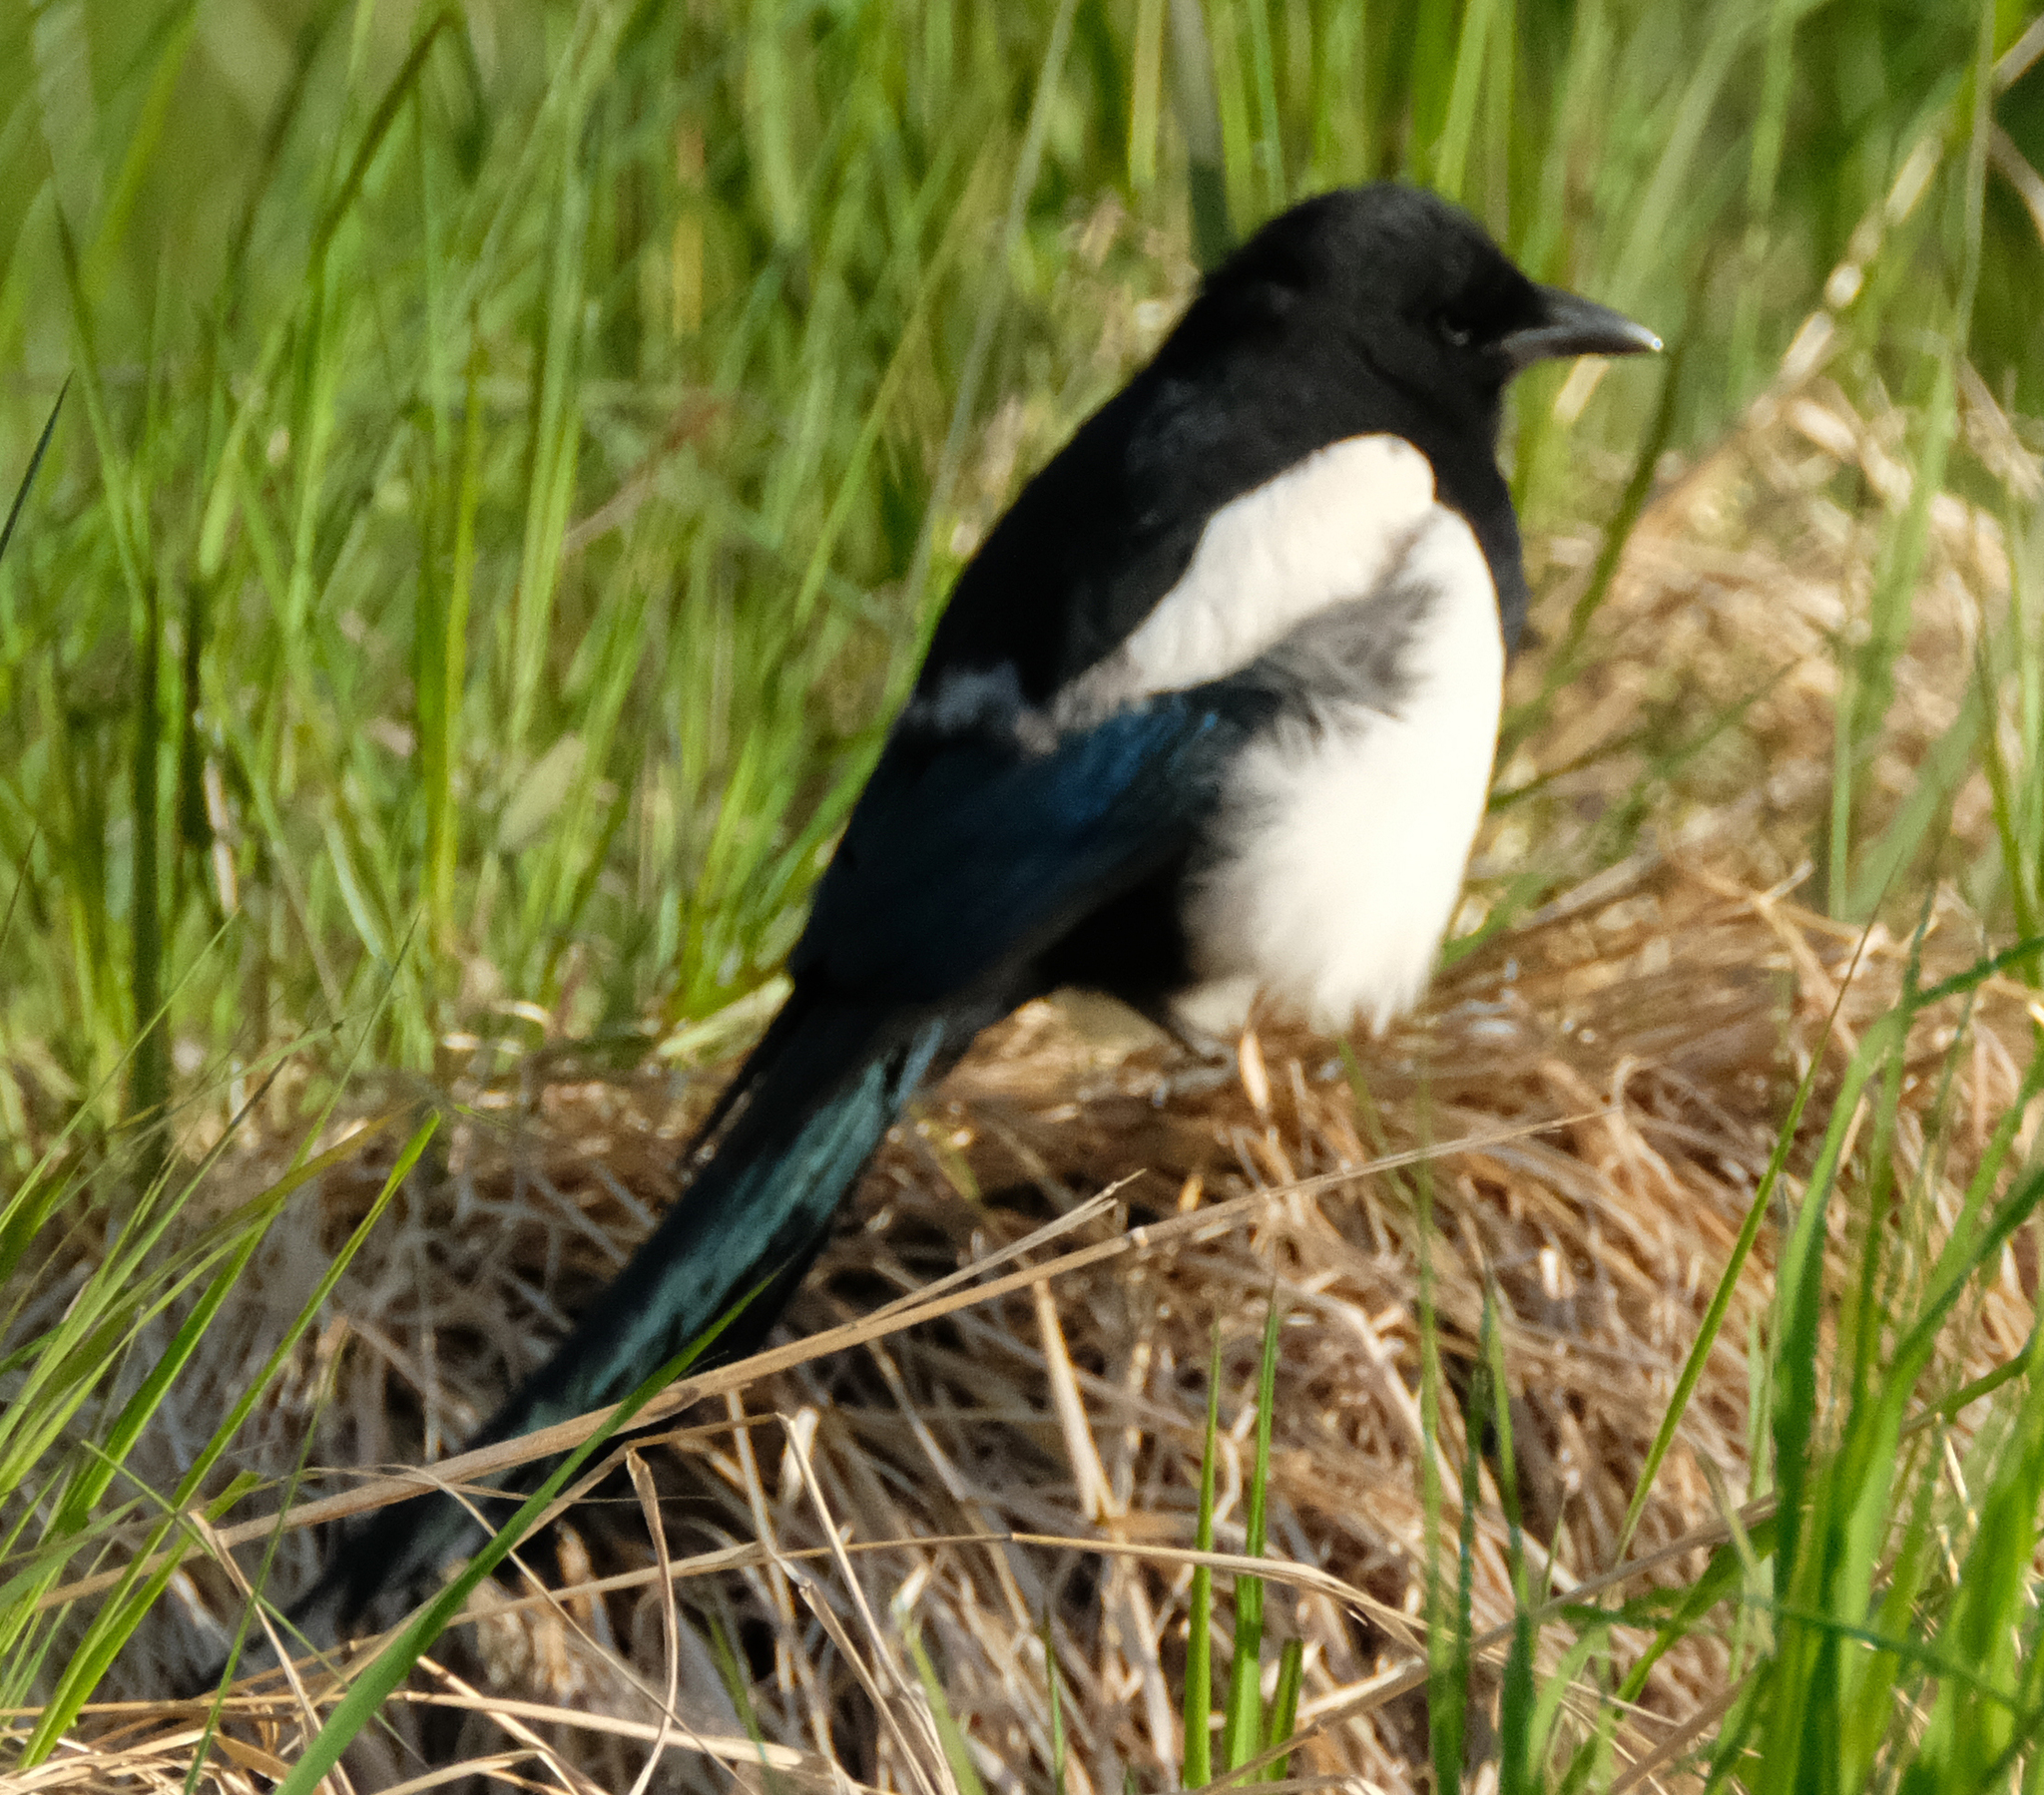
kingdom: Animalia
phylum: Chordata
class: Aves
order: Passeriformes
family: Corvidae
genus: Pica
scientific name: Pica hudsonia
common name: Black-billed magpie
